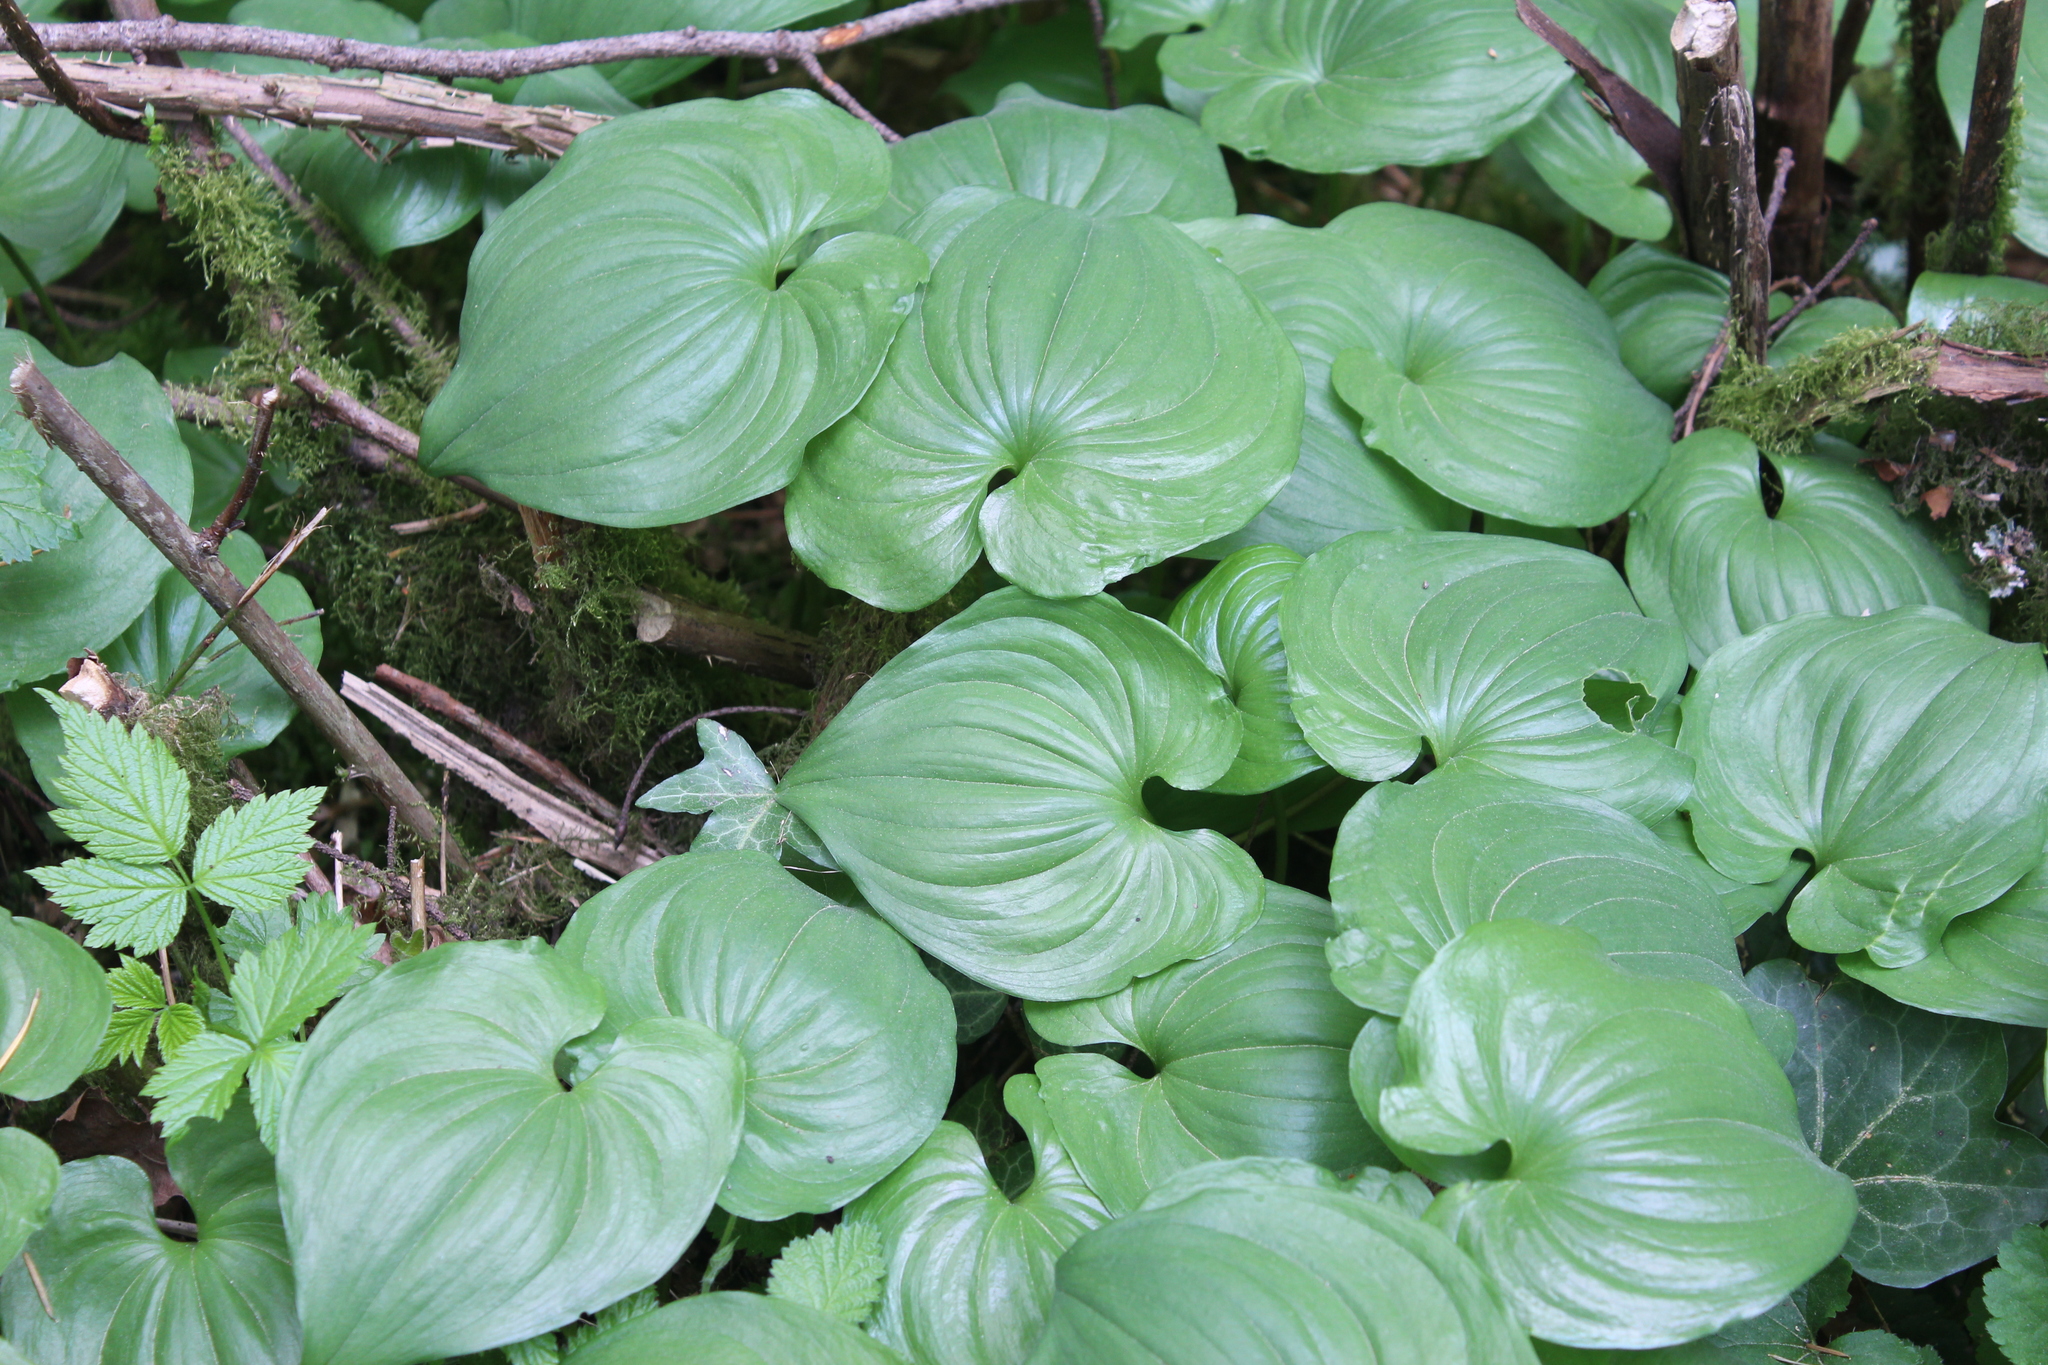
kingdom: Plantae
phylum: Tracheophyta
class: Liliopsida
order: Asparagales
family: Asparagaceae
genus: Maianthemum
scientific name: Maianthemum dilatatum
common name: False lily-of-the-valley
